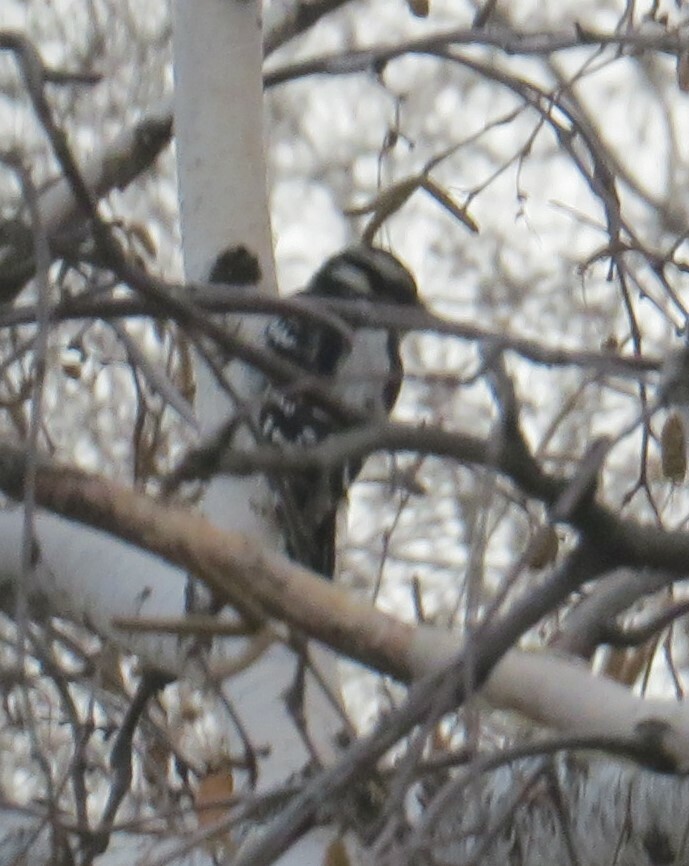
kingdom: Animalia
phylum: Chordata
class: Aves
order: Piciformes
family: Picidae
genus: Dryobates
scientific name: Dryobates pubescens
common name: Downy woodpecker
